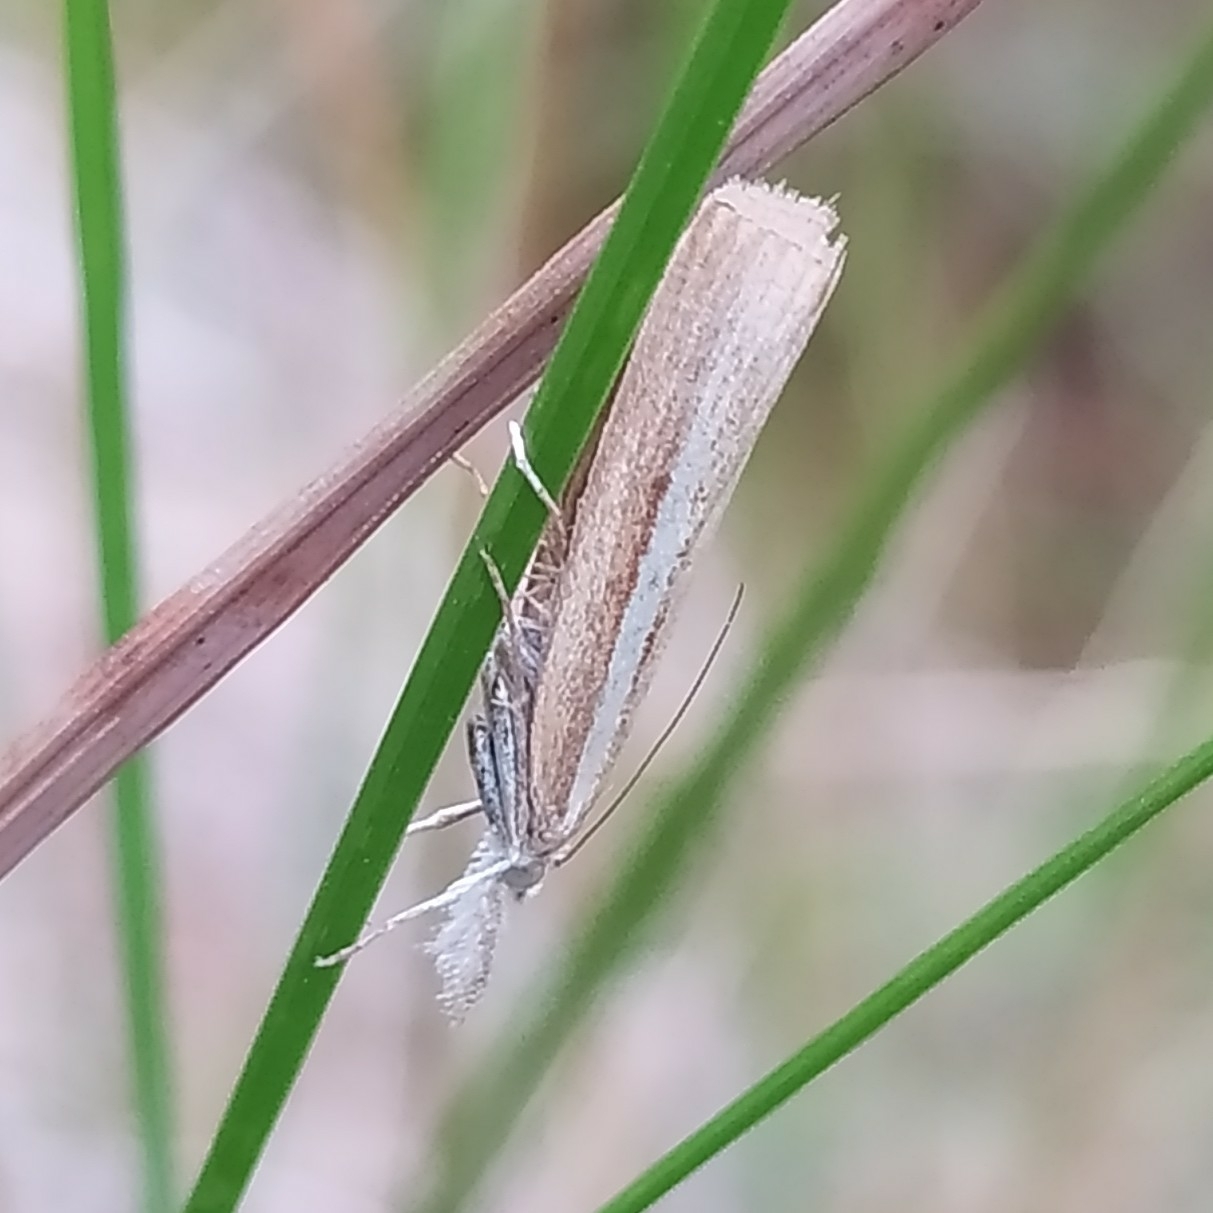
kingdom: Animalia
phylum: Arthropoda
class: Insecta
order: Lepidoptera
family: Crambidae
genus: Agriphila
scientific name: Agriphila selasella
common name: Pale-streak grass-veneer
